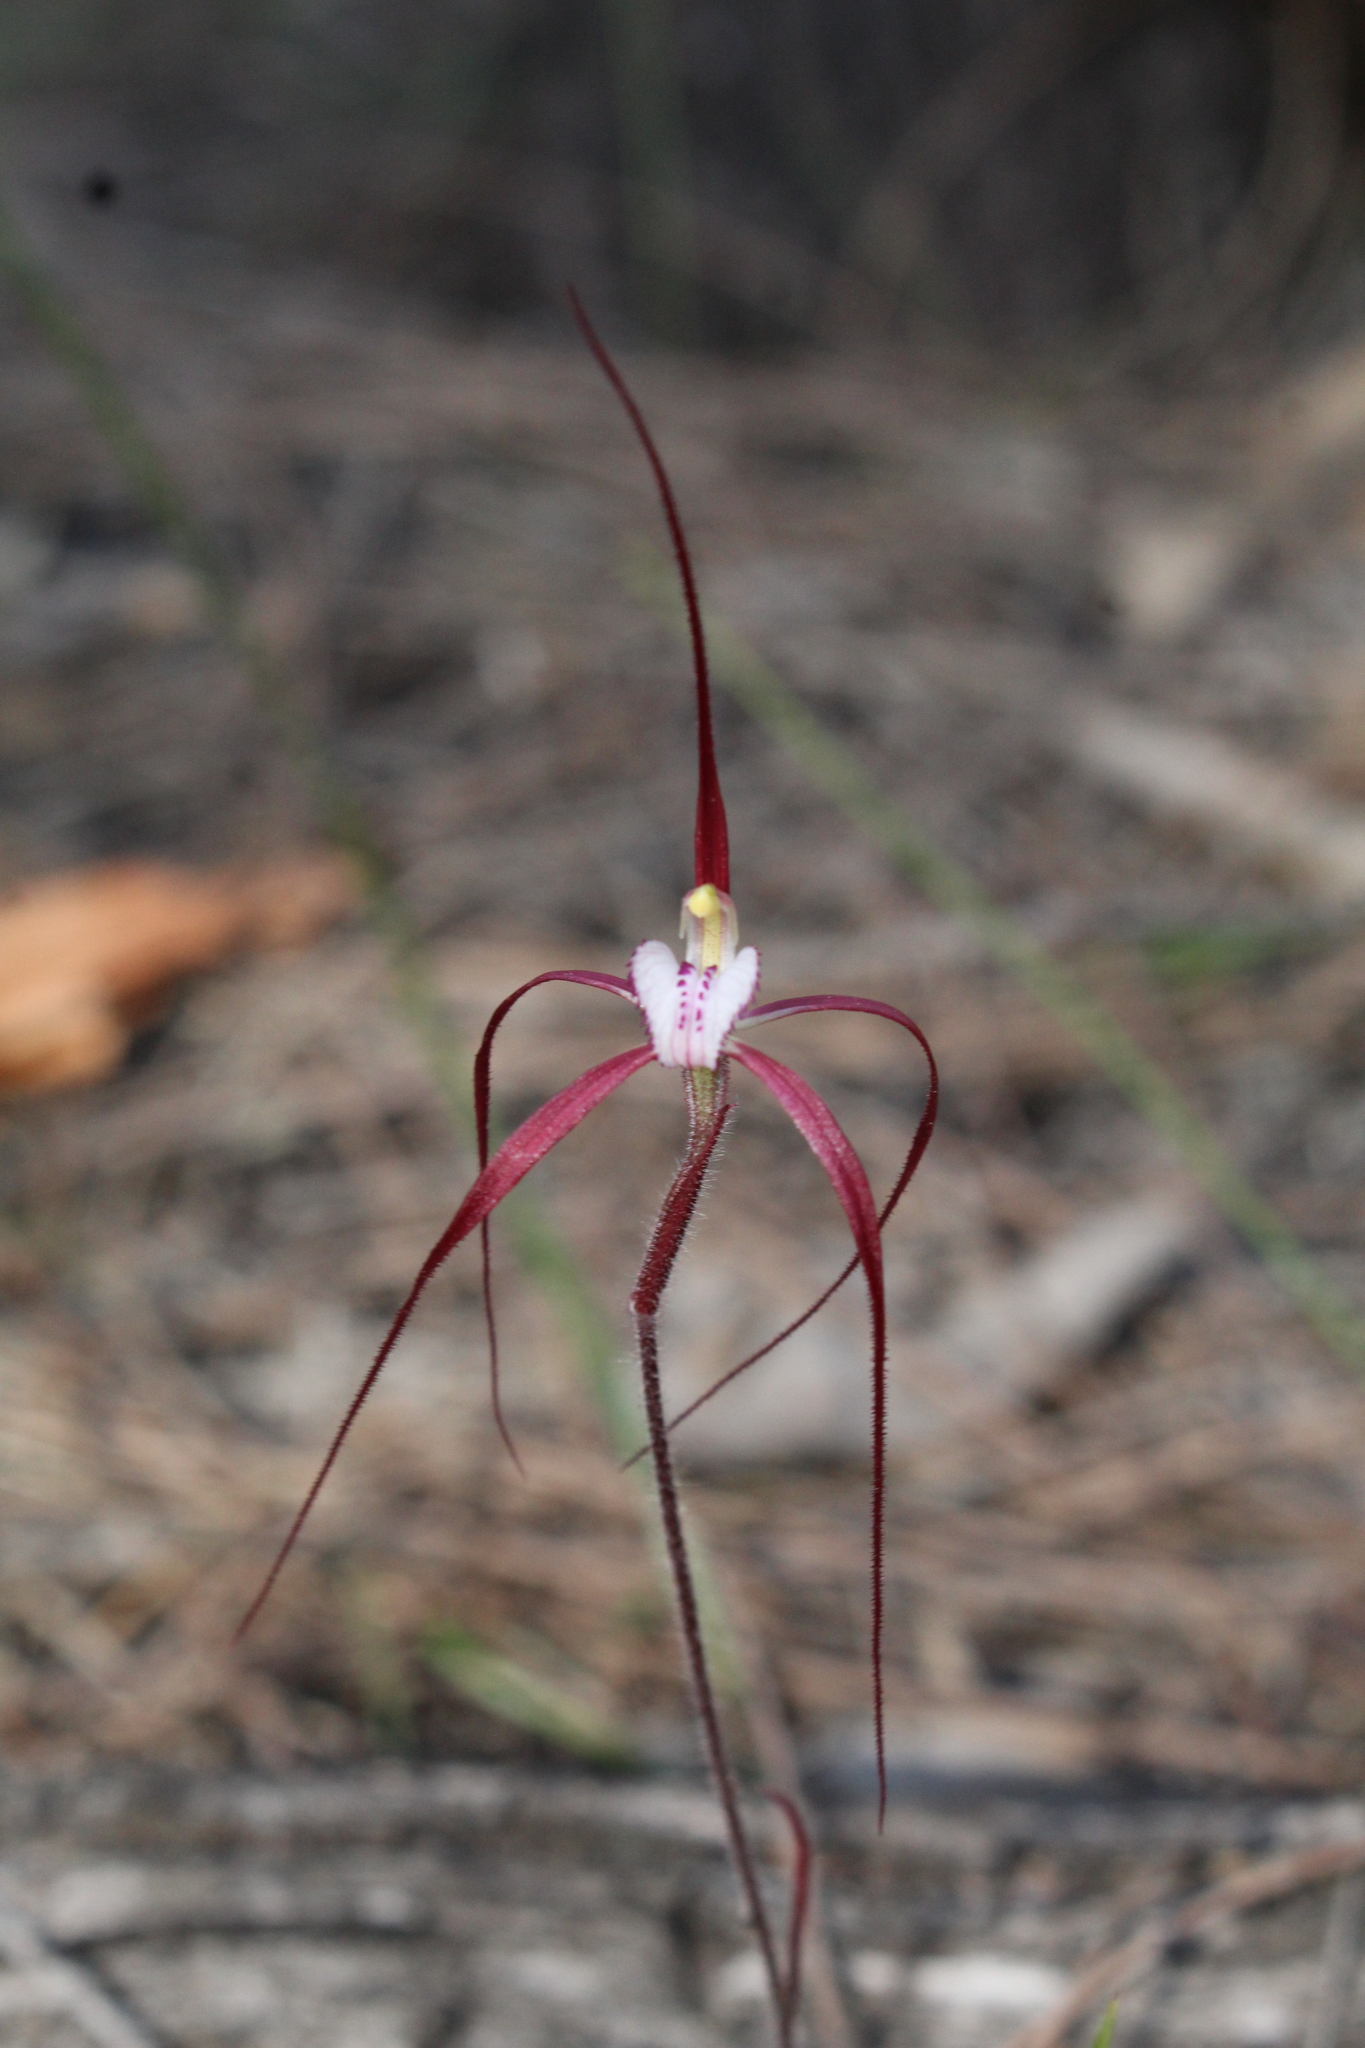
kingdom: Plantae
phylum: Tracheophyta
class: Liliopsida
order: Asparagales
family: Orchidaceae
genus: Caladenia
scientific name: Caladenia denticulata
